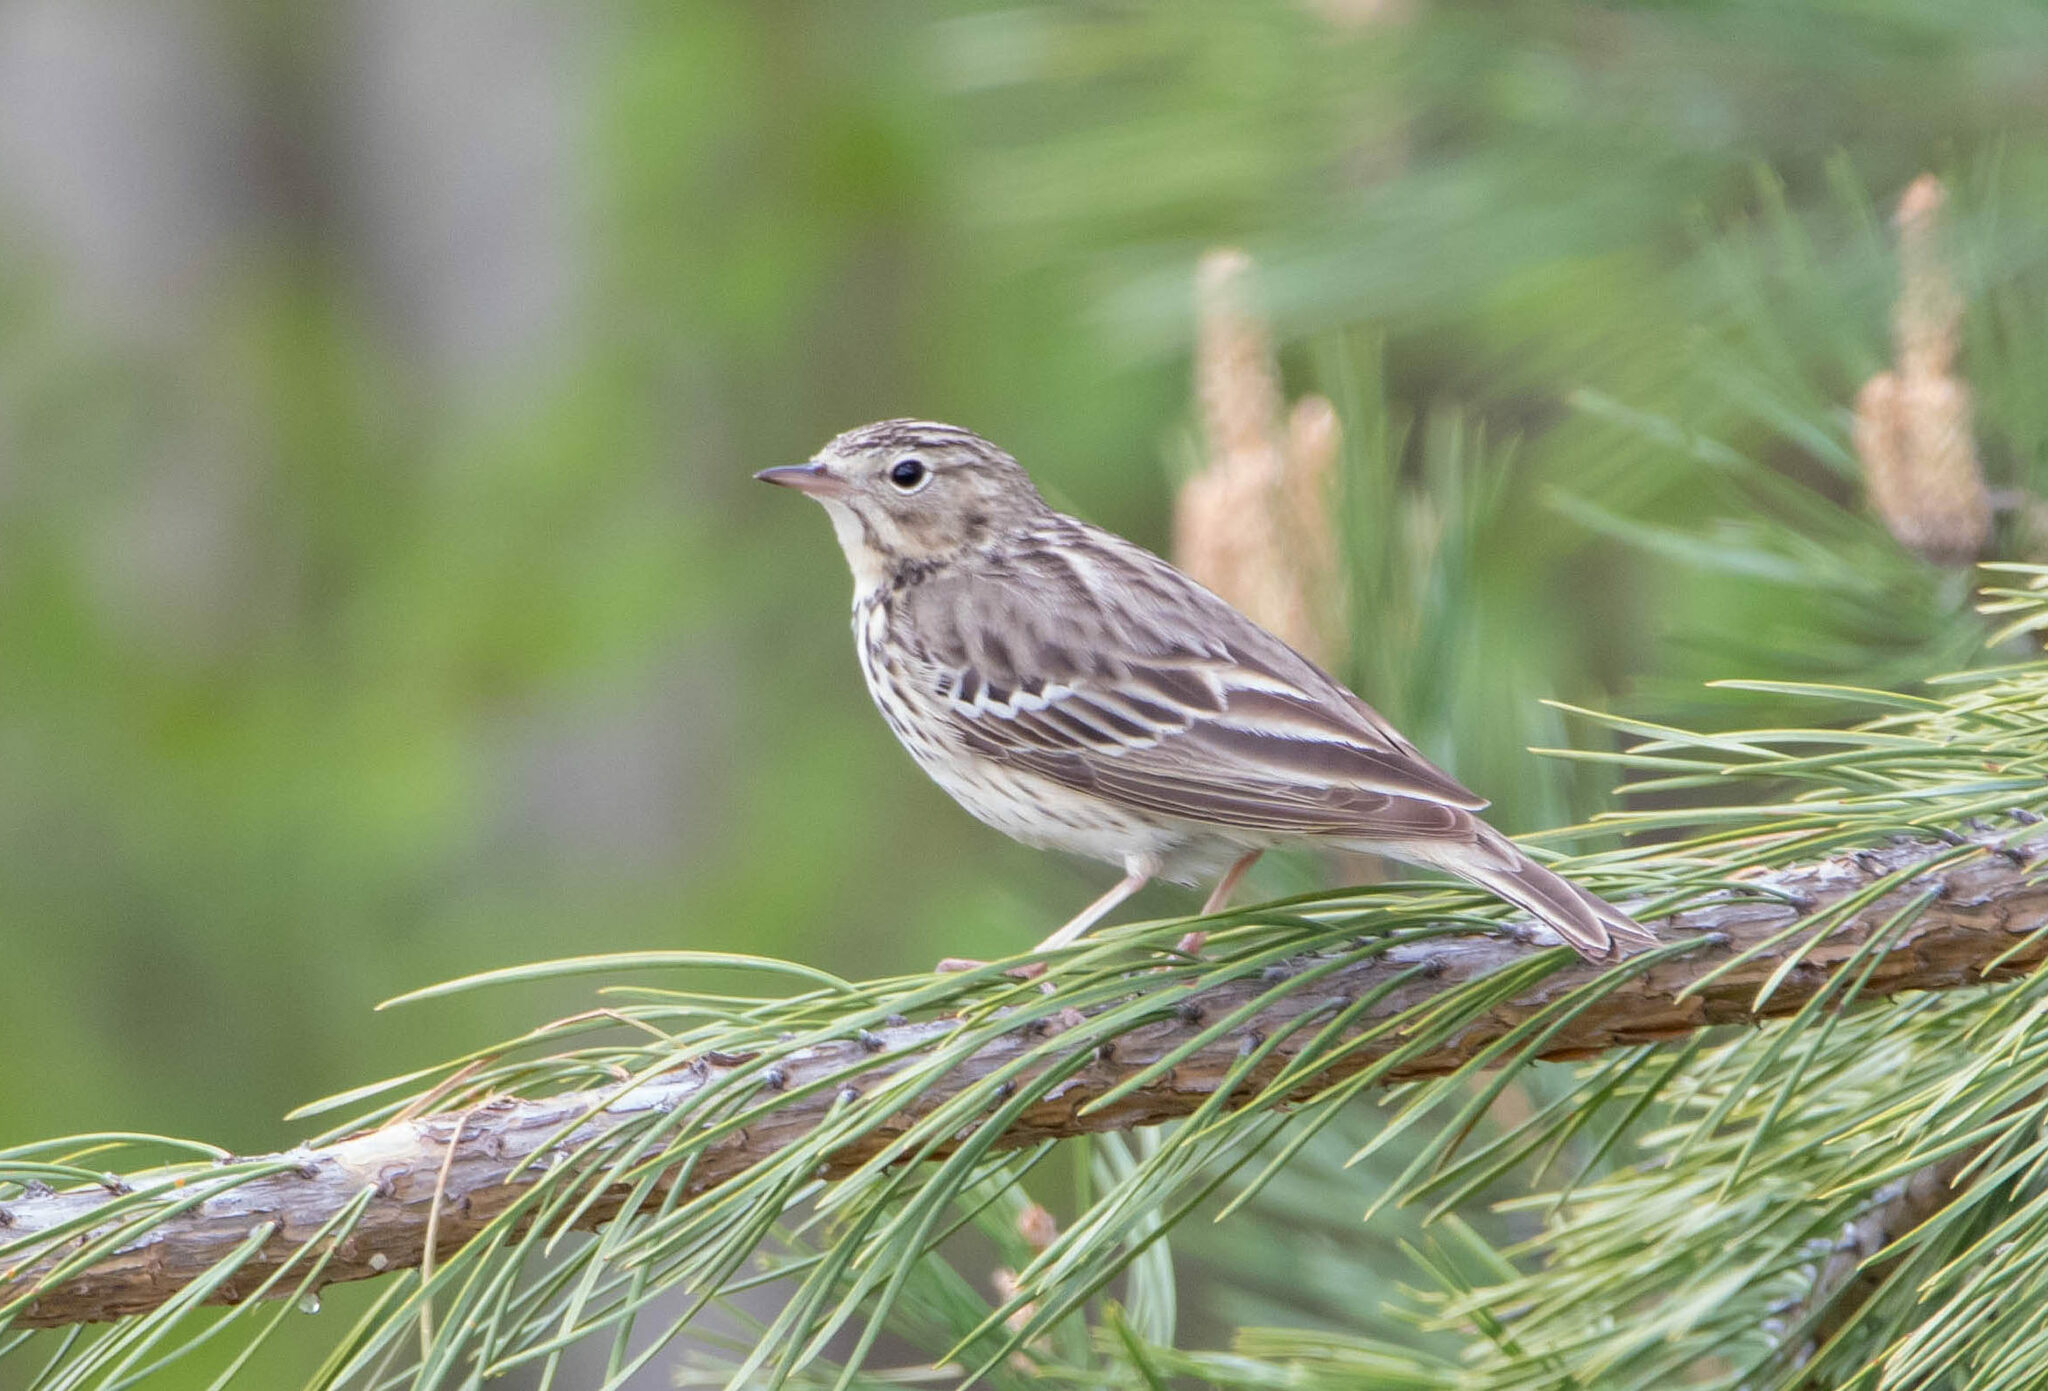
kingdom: Animalia
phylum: Chordata
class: Aves
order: Passeriformes
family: Motacillidae
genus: Anthus
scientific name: Anthus trivialis
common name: Tree pipit
